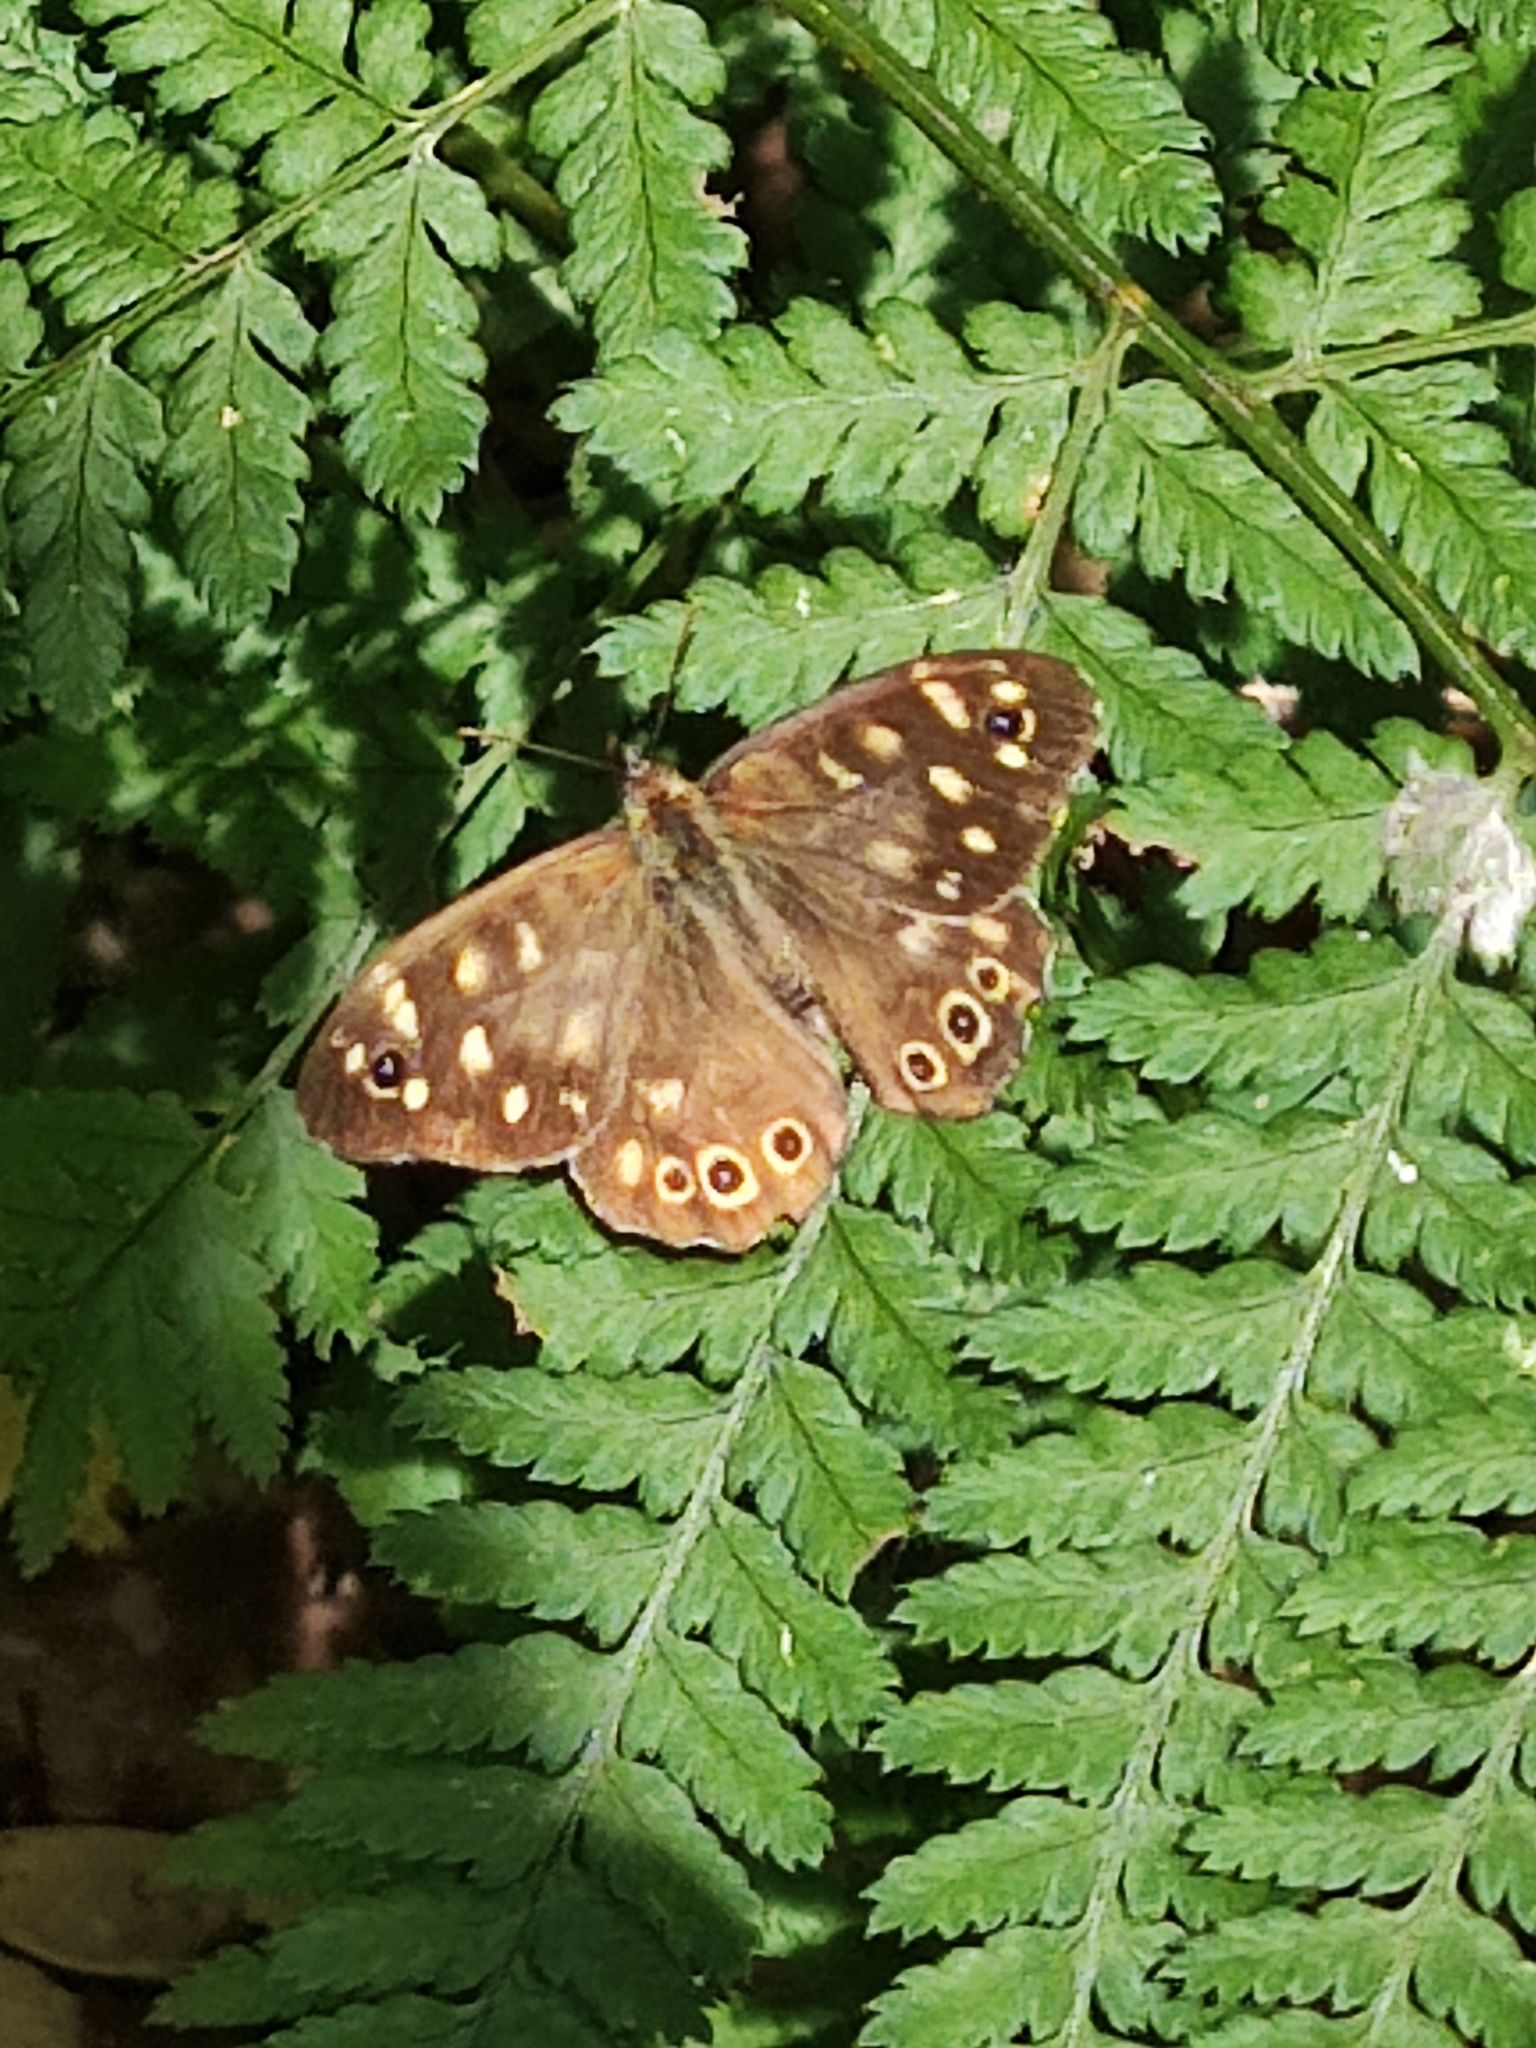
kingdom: Animalia
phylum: Arthropoda
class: Insecta
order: Lepidoptera
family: Nymphalidae
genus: Pararge
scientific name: Pararge aegeria
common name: Speckled wood
